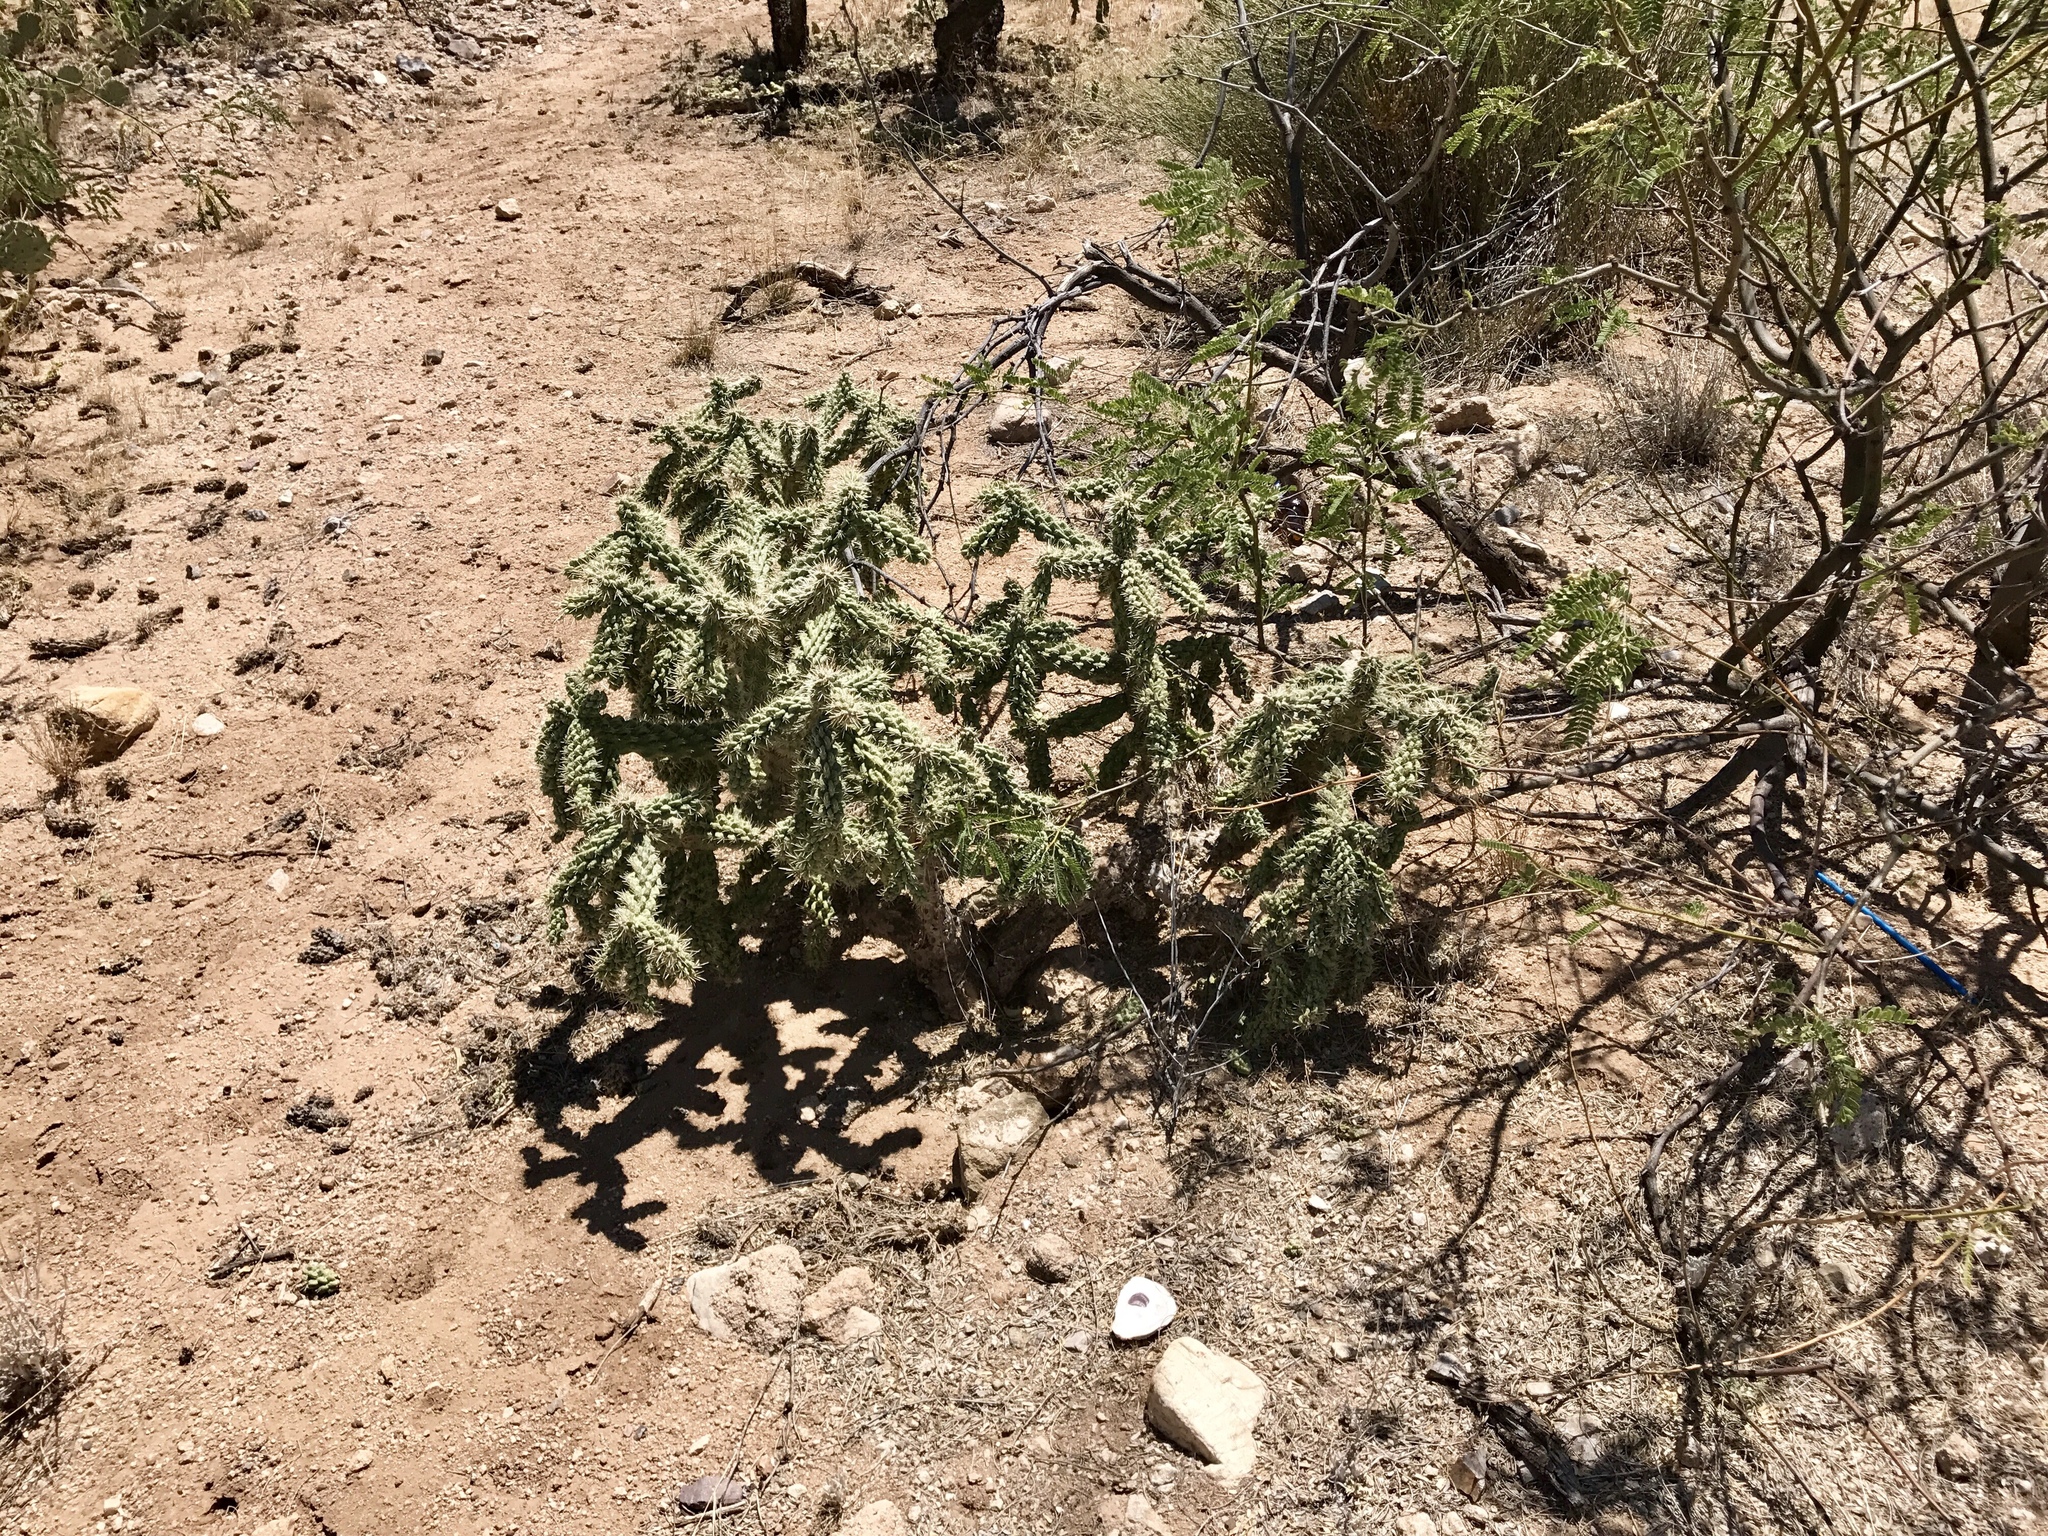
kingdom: Plantae
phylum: Tracheophyta
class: Magnoliopsida
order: Caryophyllales
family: Cactaceae
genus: Cylindropuntia
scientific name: Cylindropuntia fulgida
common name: Jumping cholla
